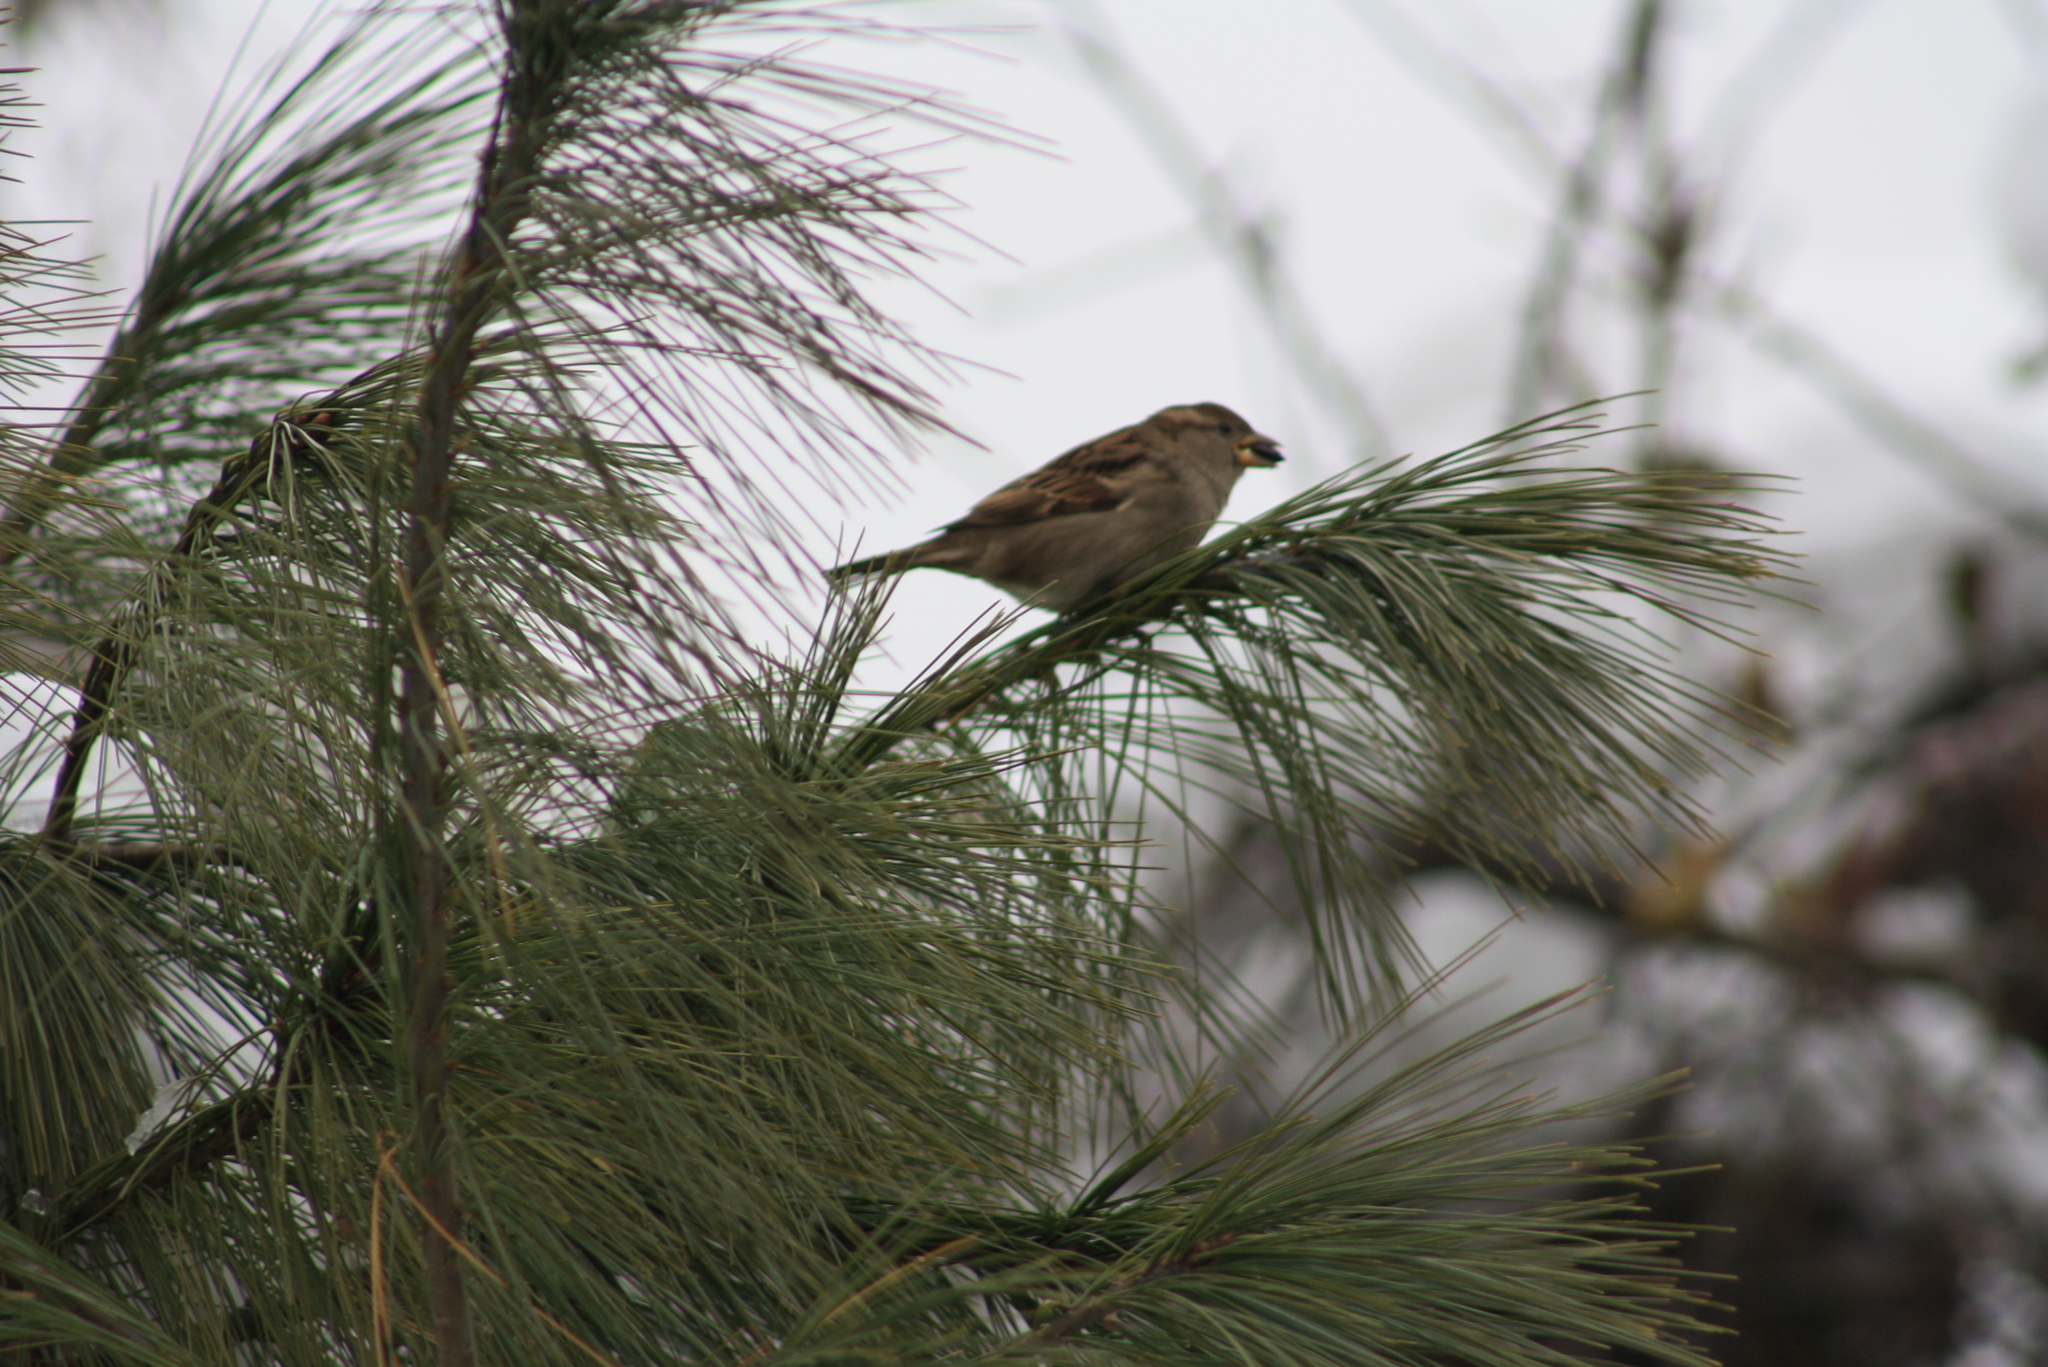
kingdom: Animalia
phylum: Chordata
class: Aves
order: Passeriformes
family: Passeridae
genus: Passer
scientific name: Passer domesticus
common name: House sparrow
